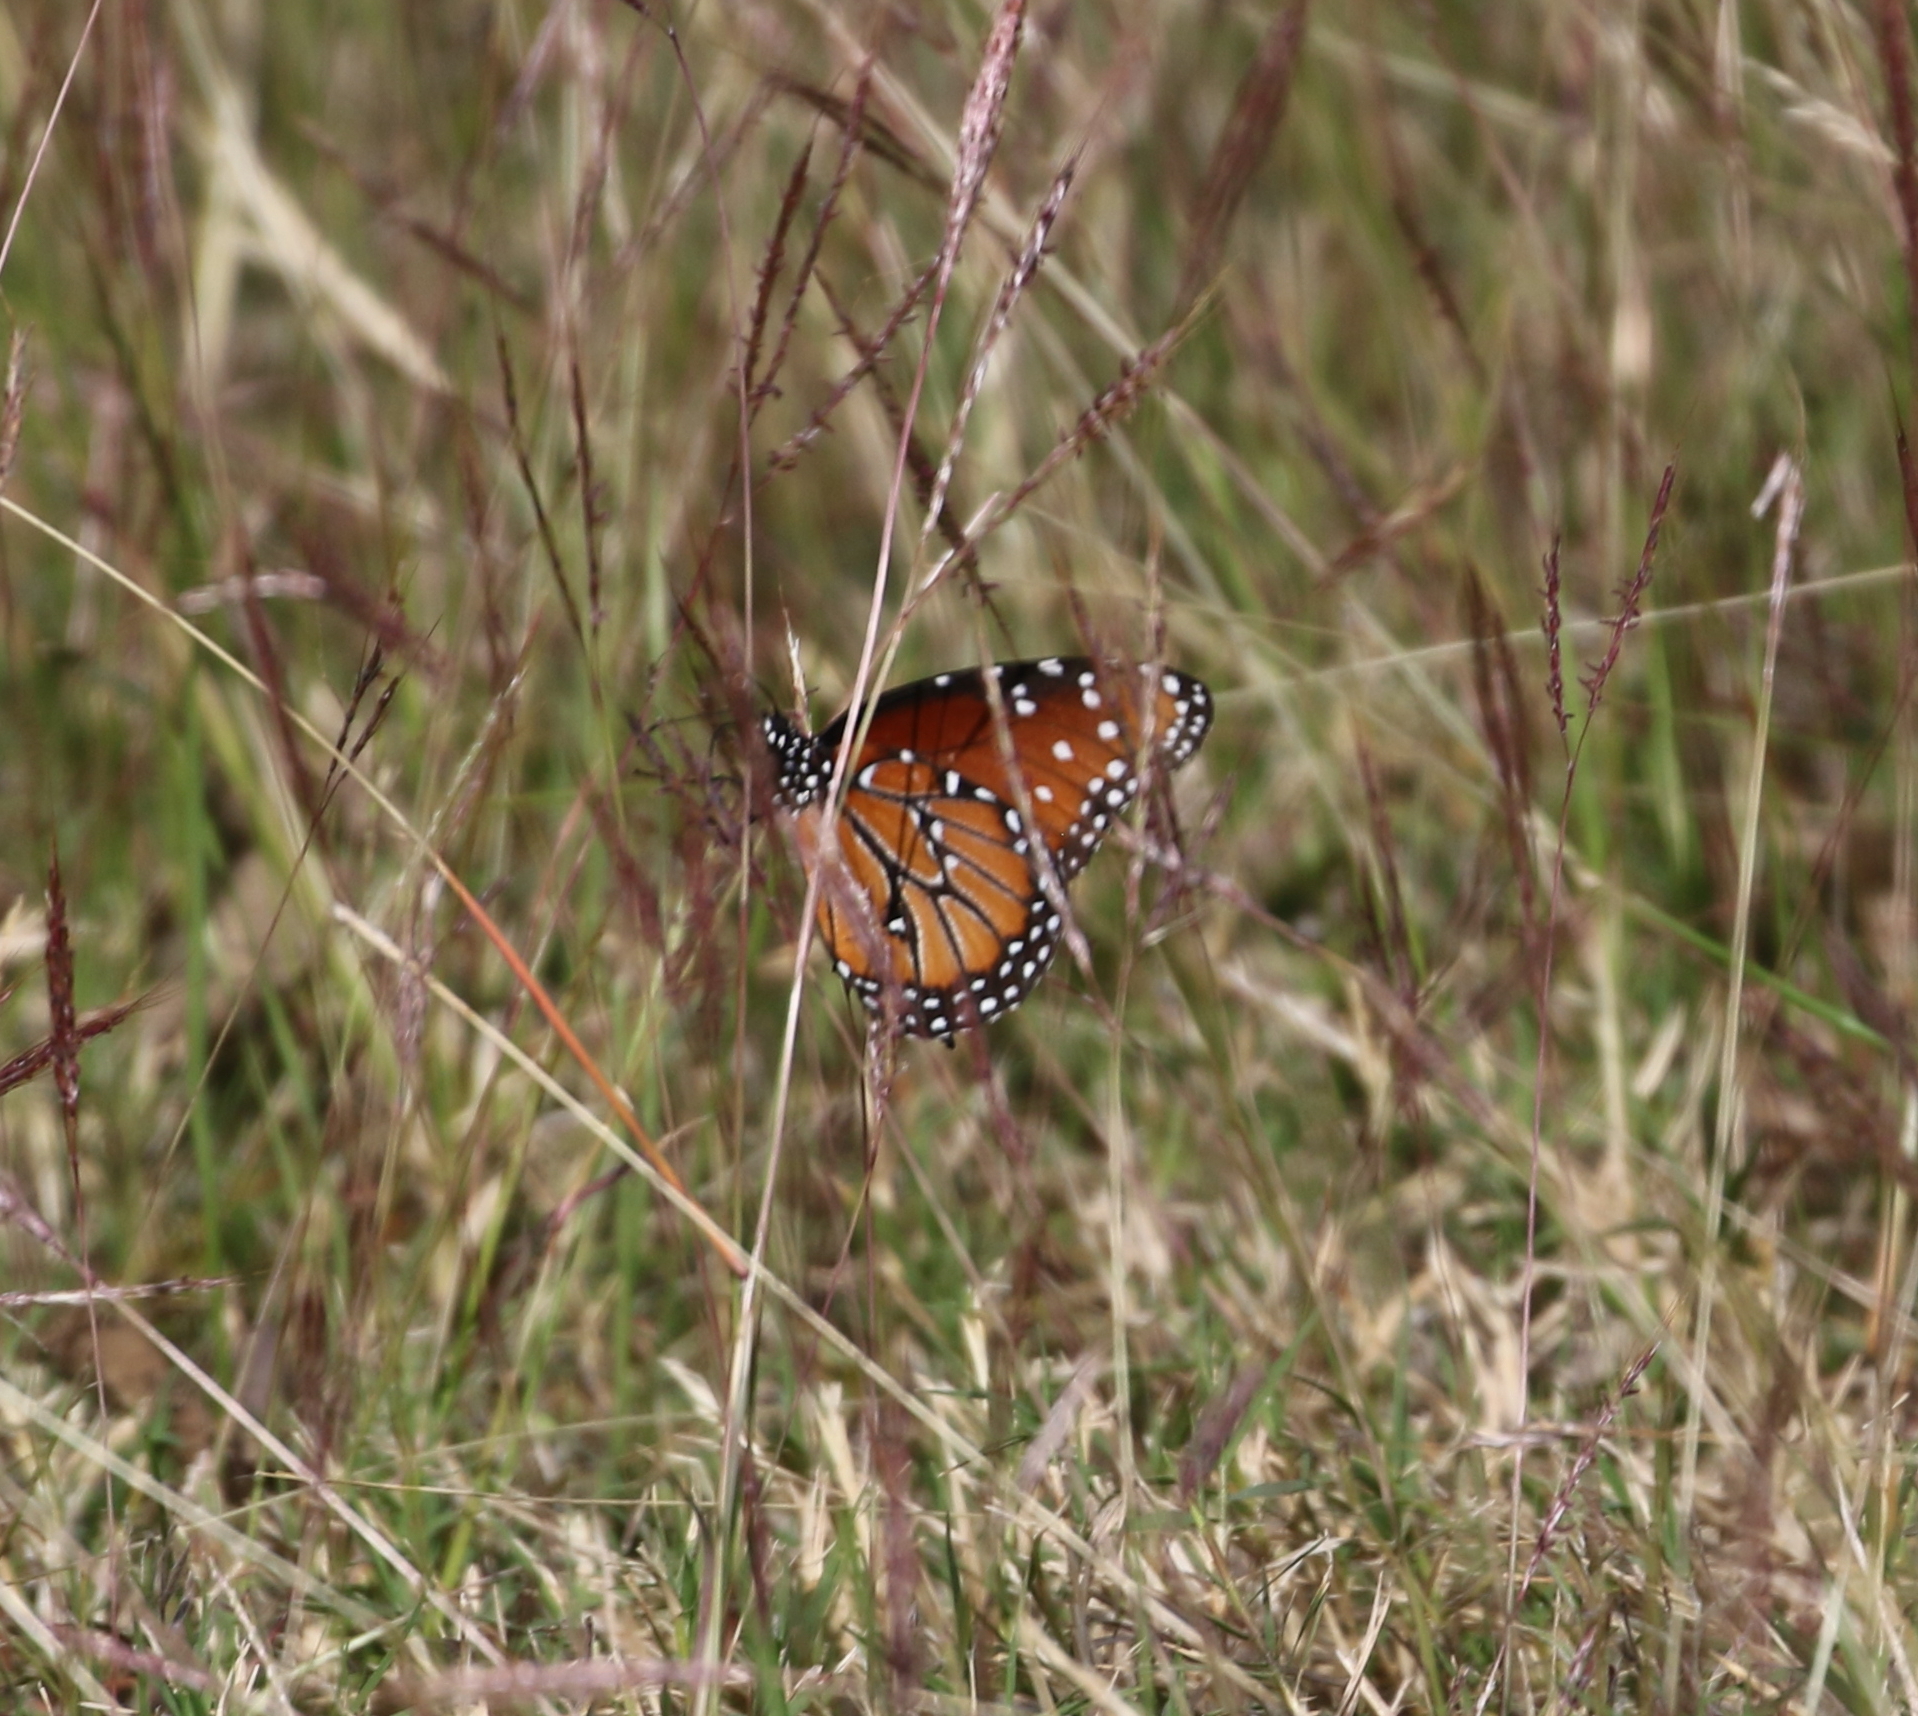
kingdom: Animalia
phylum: Arthropoda
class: Insecta
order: Lepidoptera
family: Nymphalidae
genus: Danaus
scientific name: Danaus gilippus
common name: Queen
